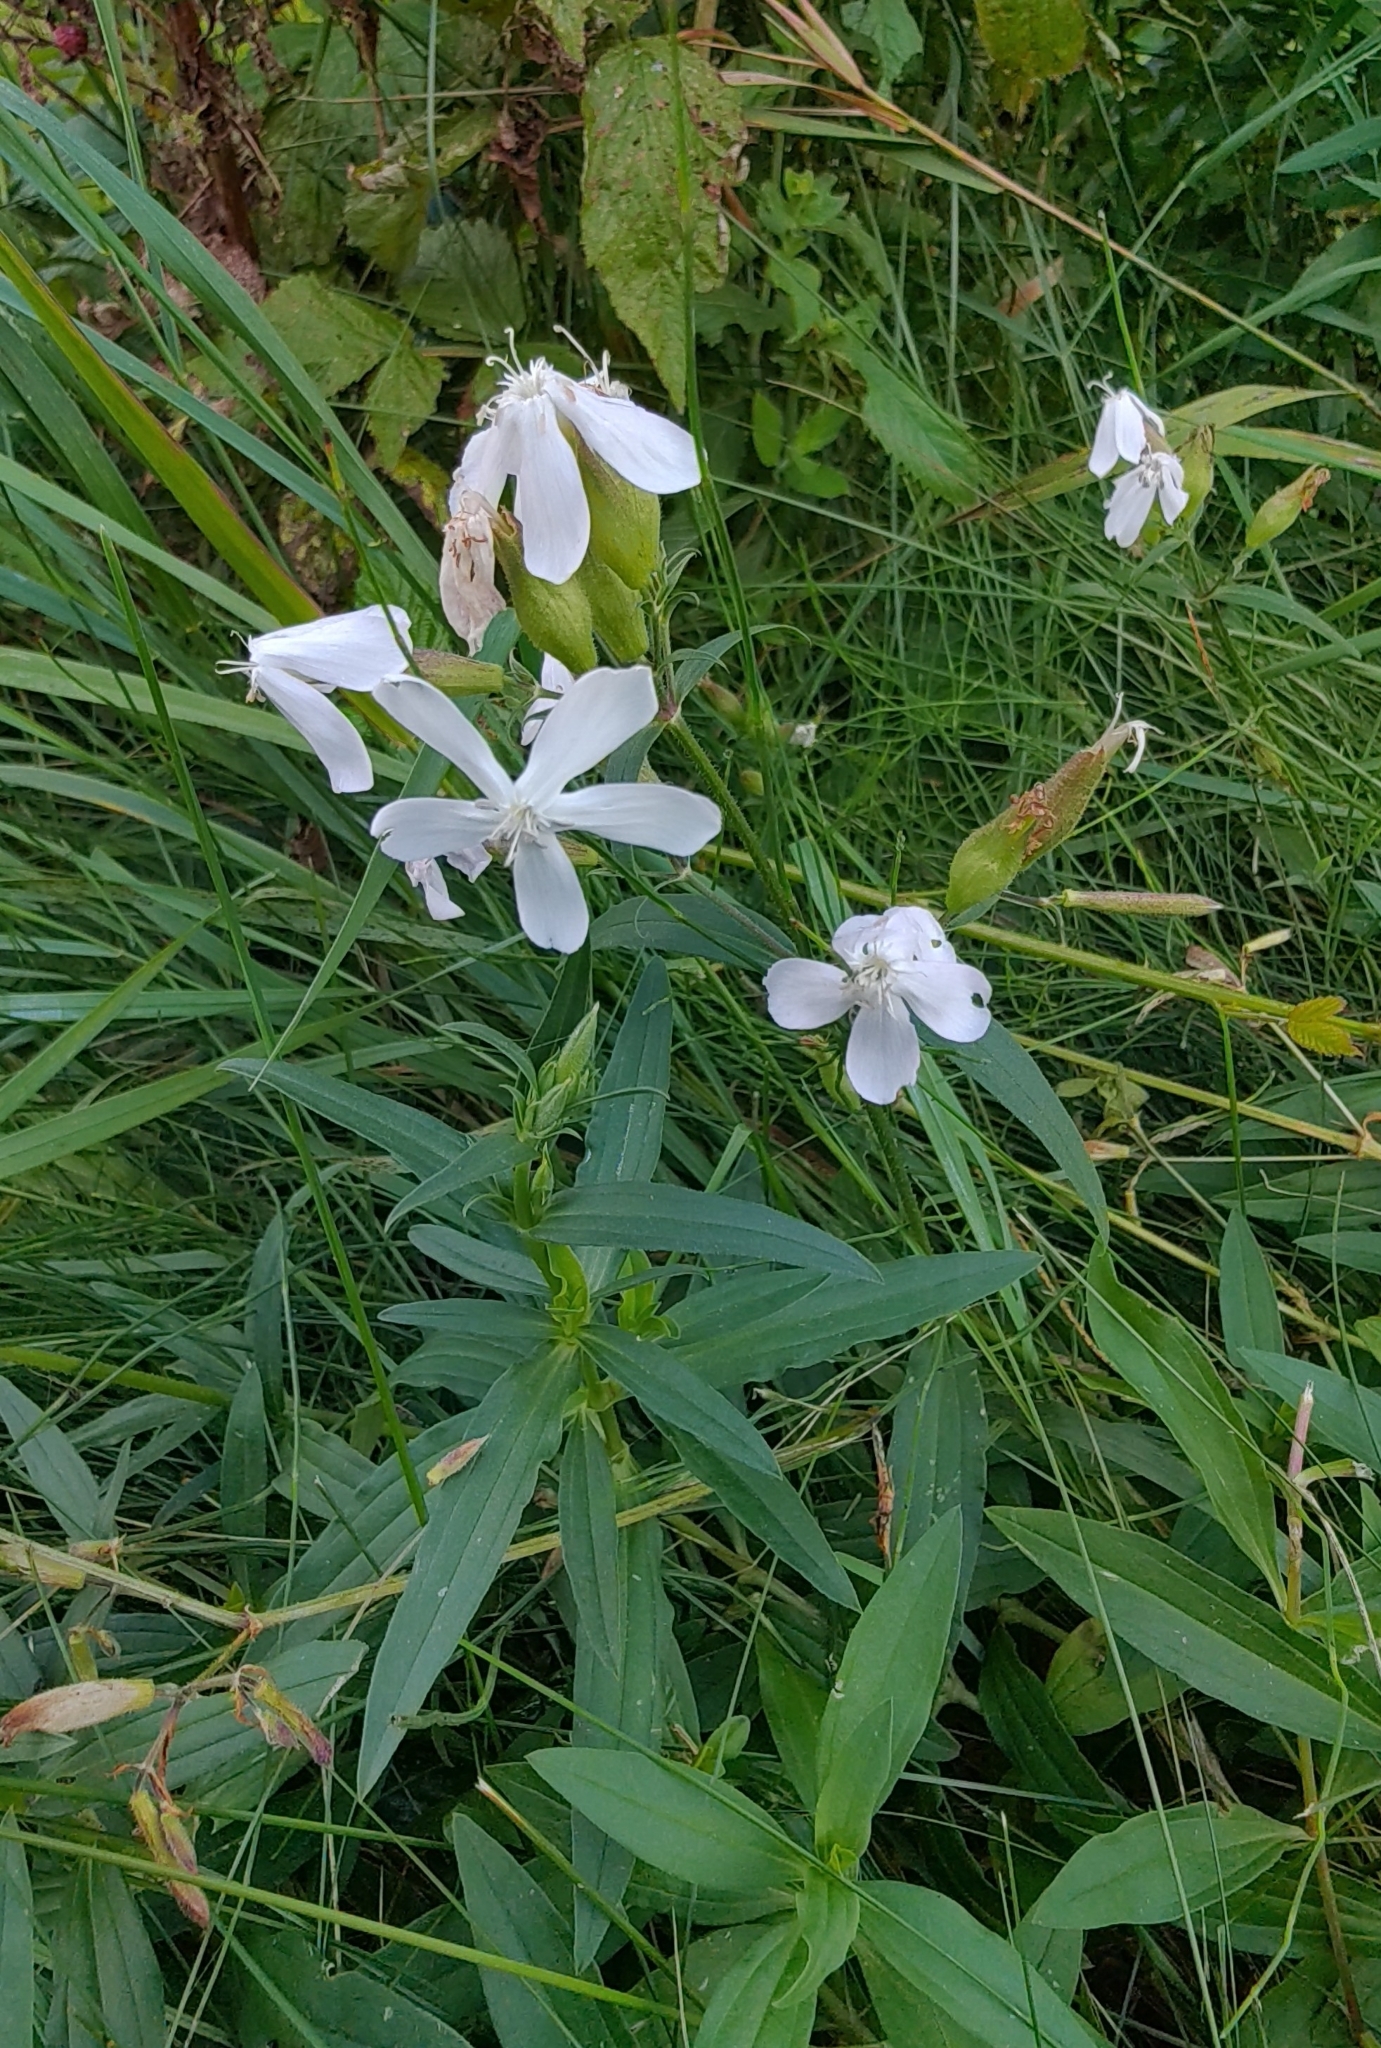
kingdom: Plantae
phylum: Tracheophyta
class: Magnoliopsida
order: Caryophyllales
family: Caryophyllaceae
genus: Saponaria
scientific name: Saponaria officinalis
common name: Soapwort
